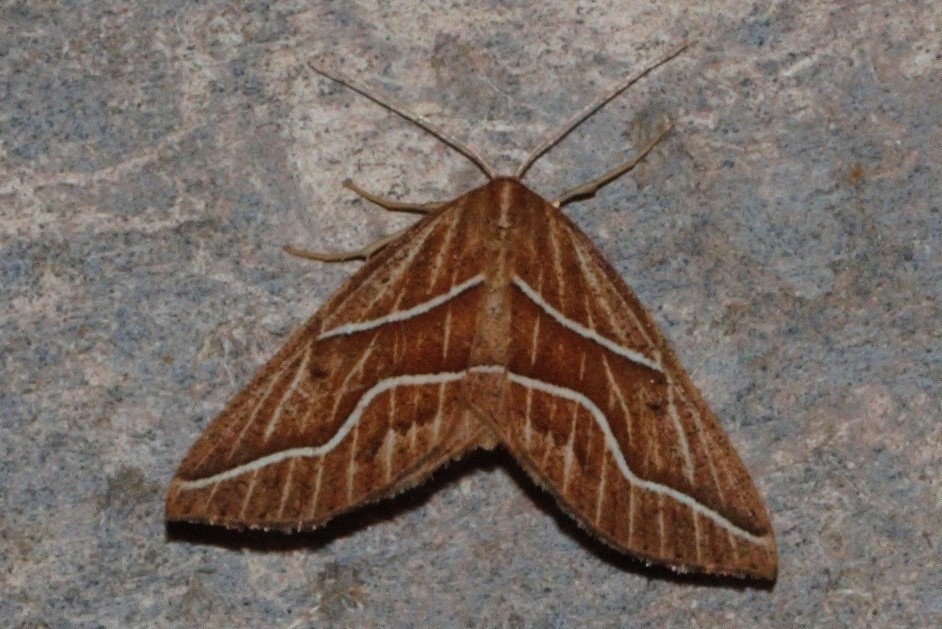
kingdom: Animalia
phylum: Arthropoda
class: Insecta
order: Lepidoptera
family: Geometridae
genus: Idiodes
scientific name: Idiodes flexilinea
